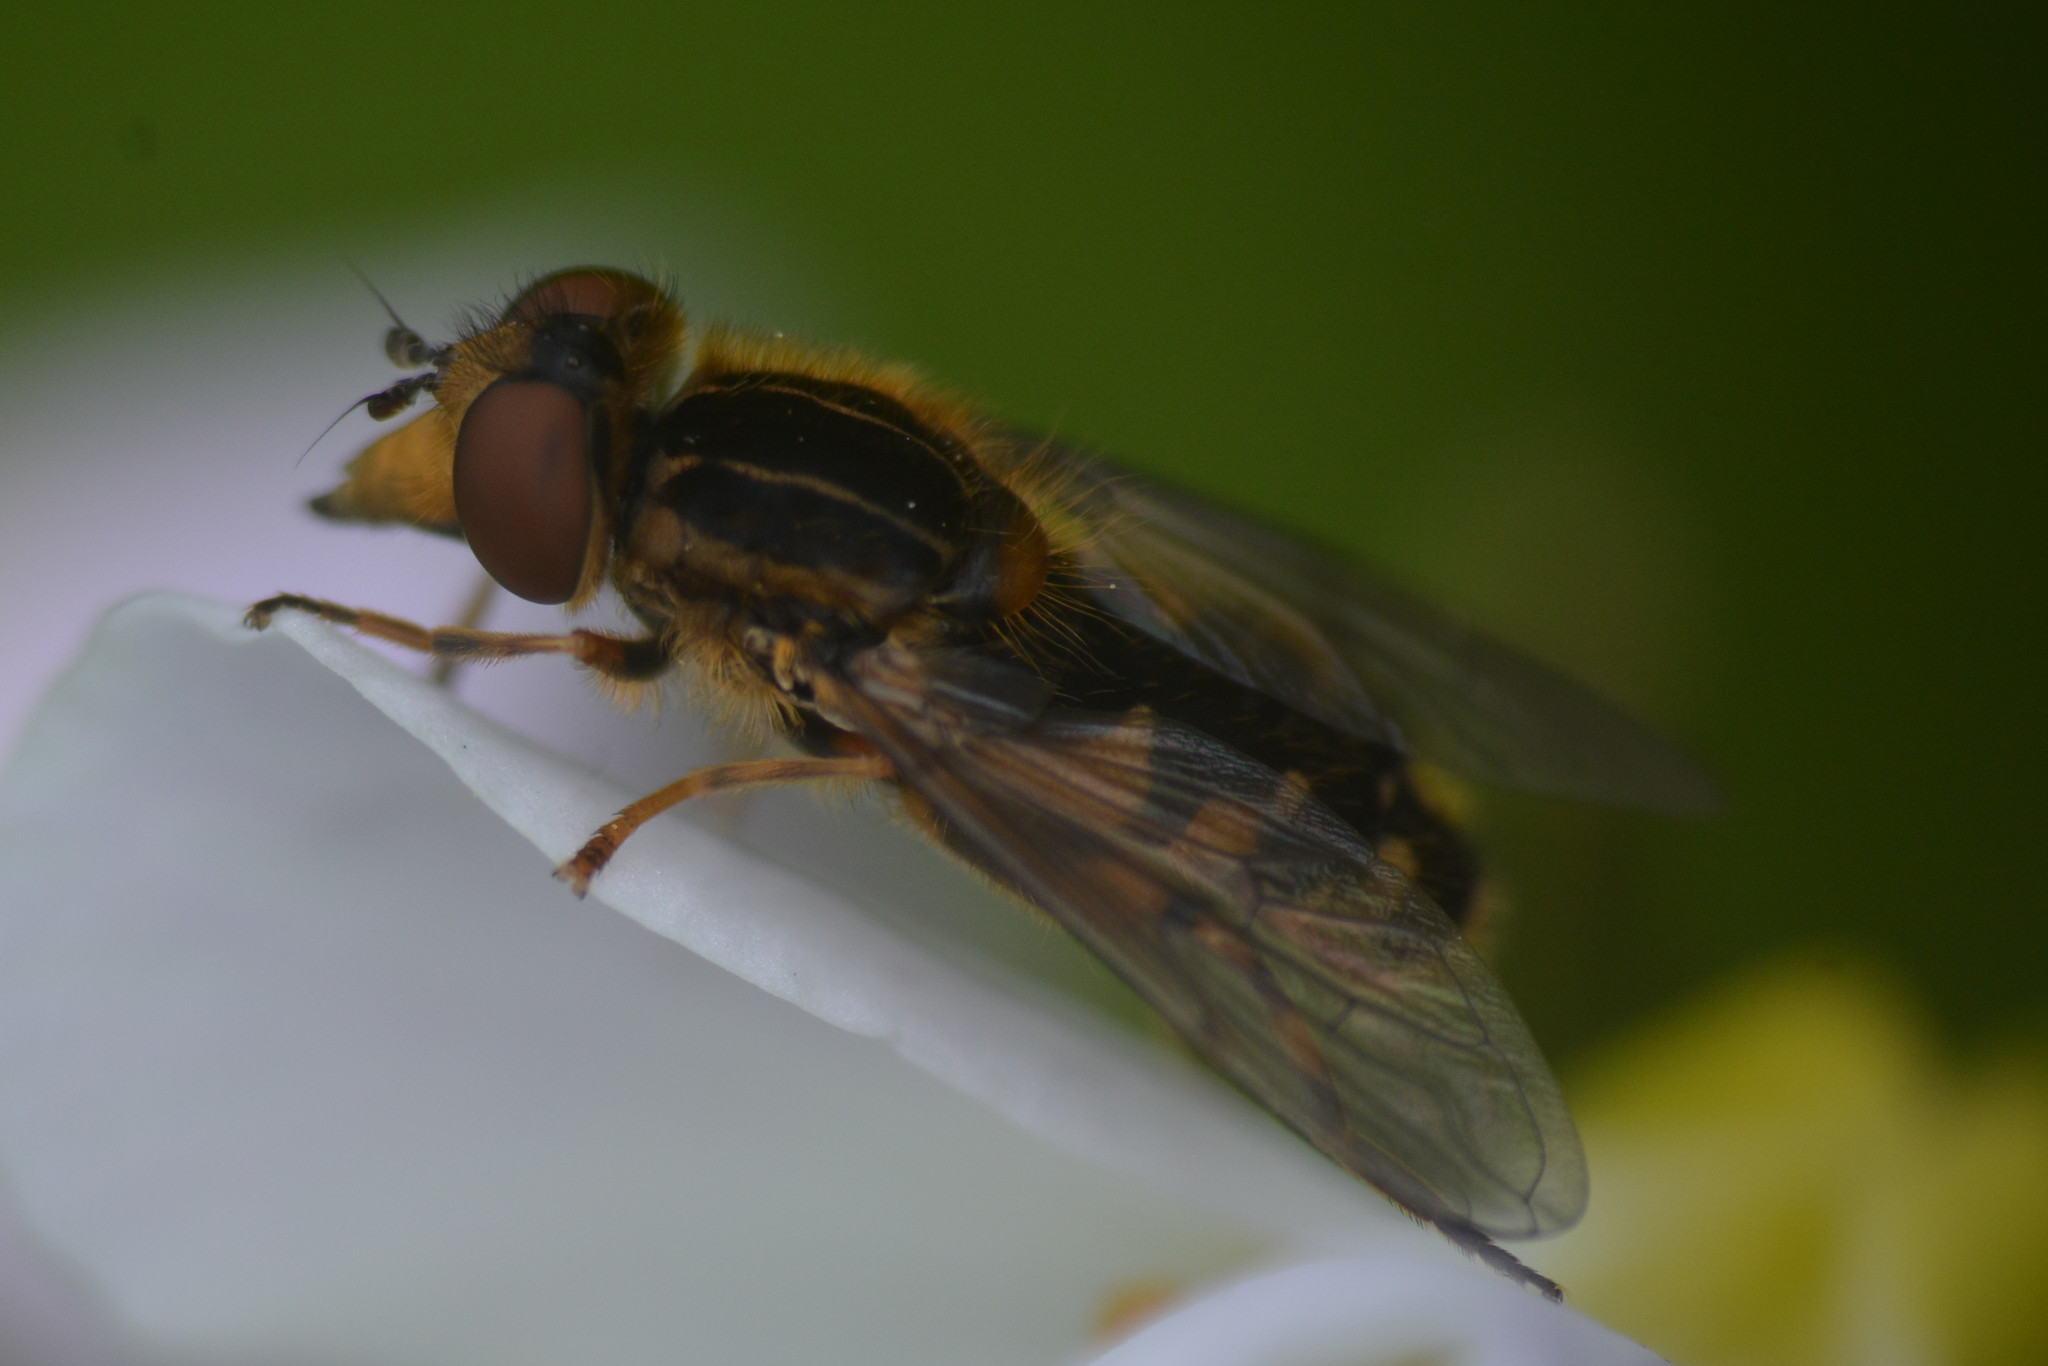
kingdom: Animalia
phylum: Arthropoda
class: Insecta
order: Diptera
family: Syrphidae
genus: Eurimyia
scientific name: Eurimyia lineatus
